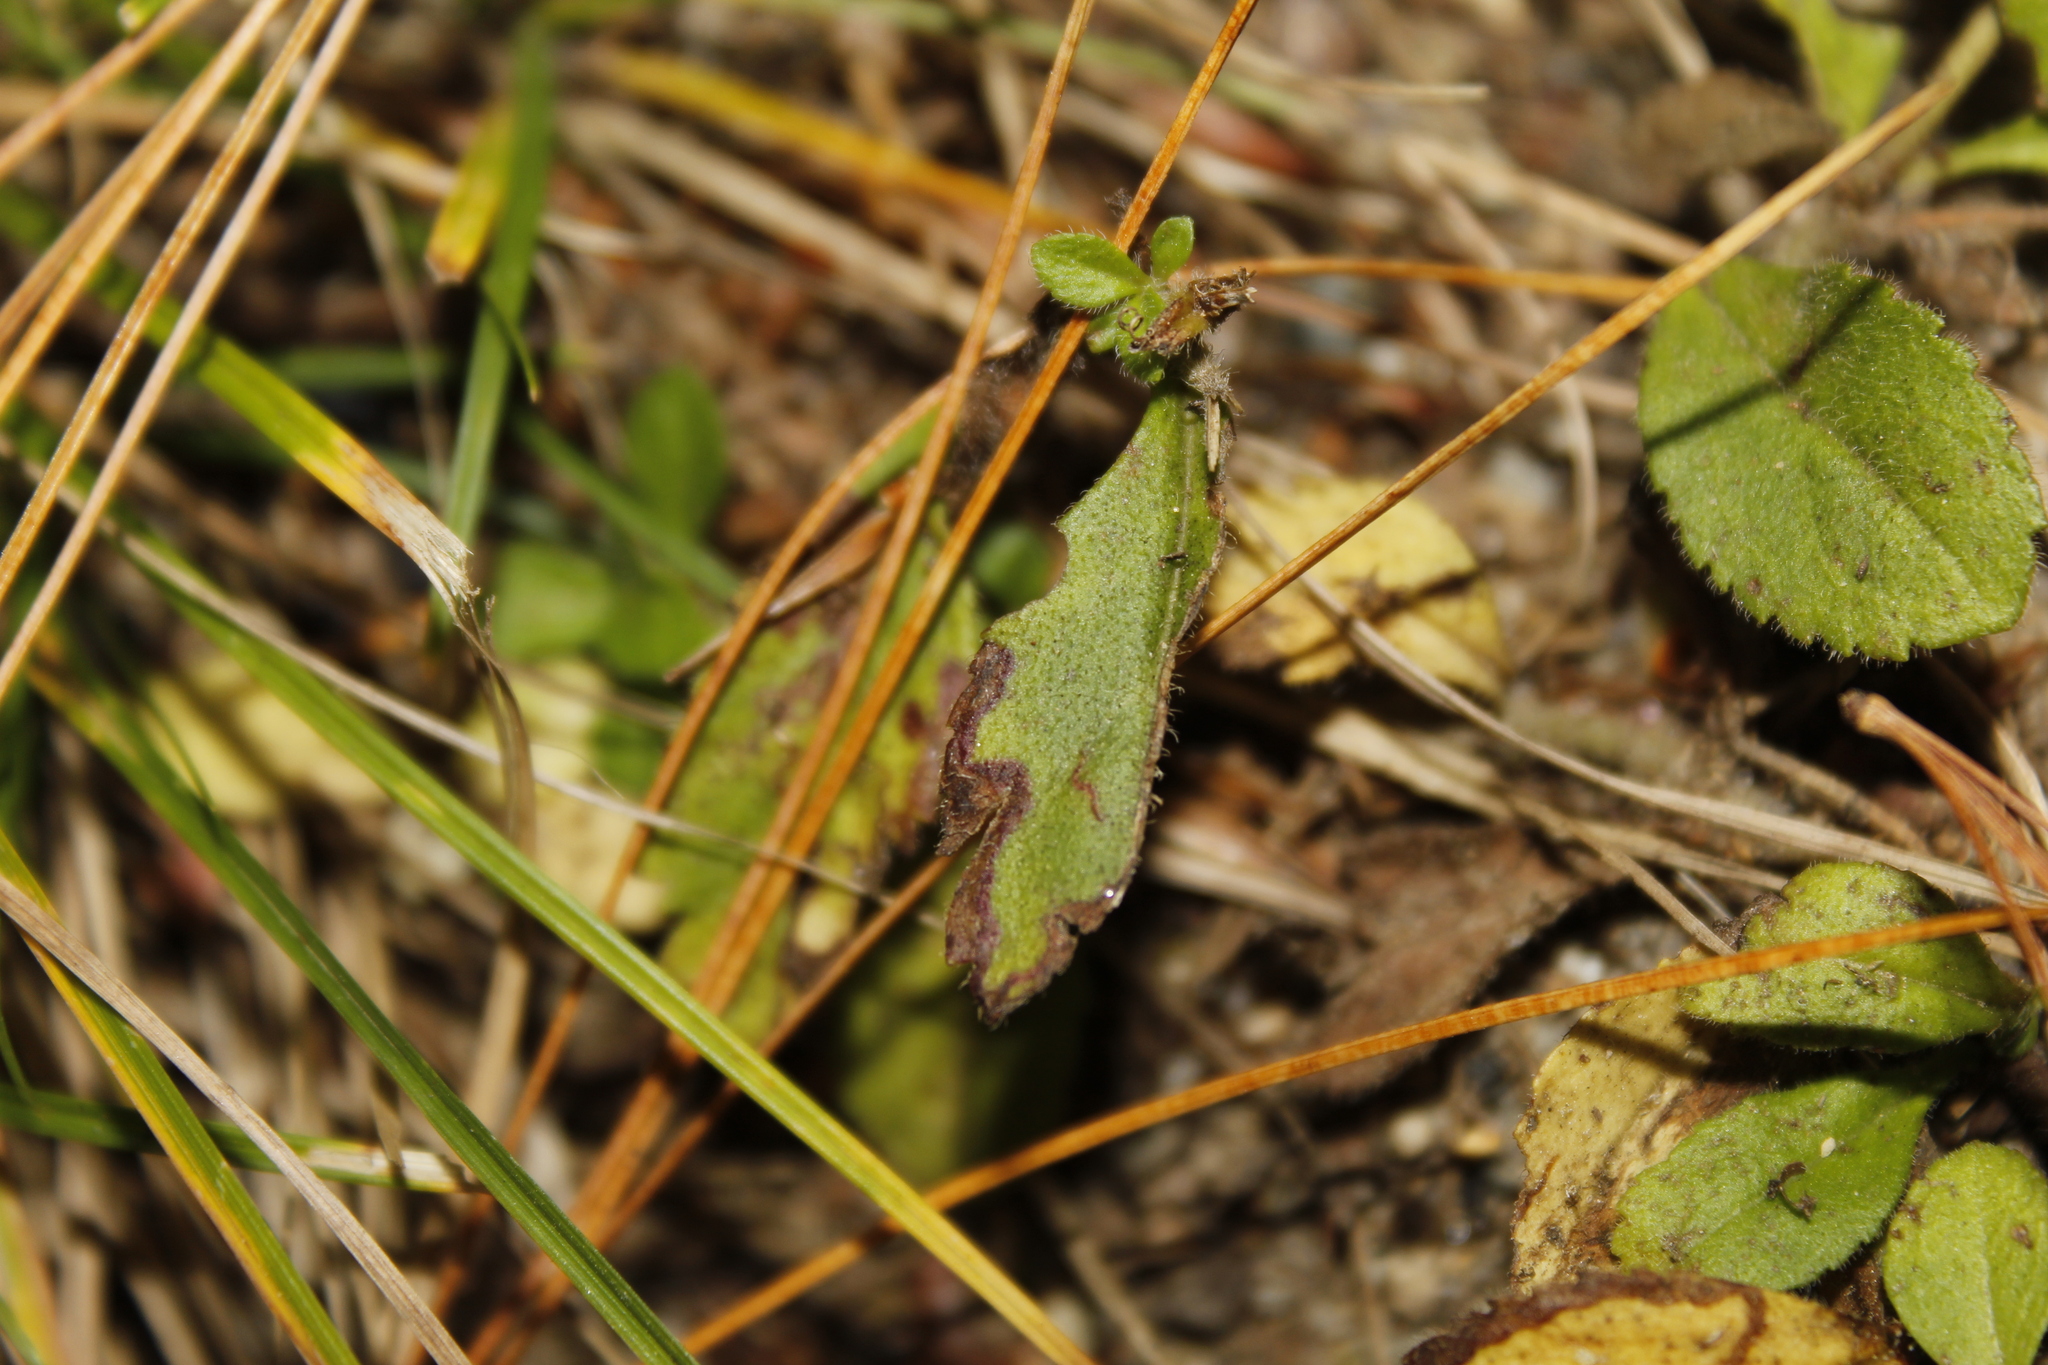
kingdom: Animalia
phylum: Arthropoda
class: Insecta
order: Diptera
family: Agromyzidae
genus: Phytomyza
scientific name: Phytomyza crassiseta
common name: Leaf-miner fly
